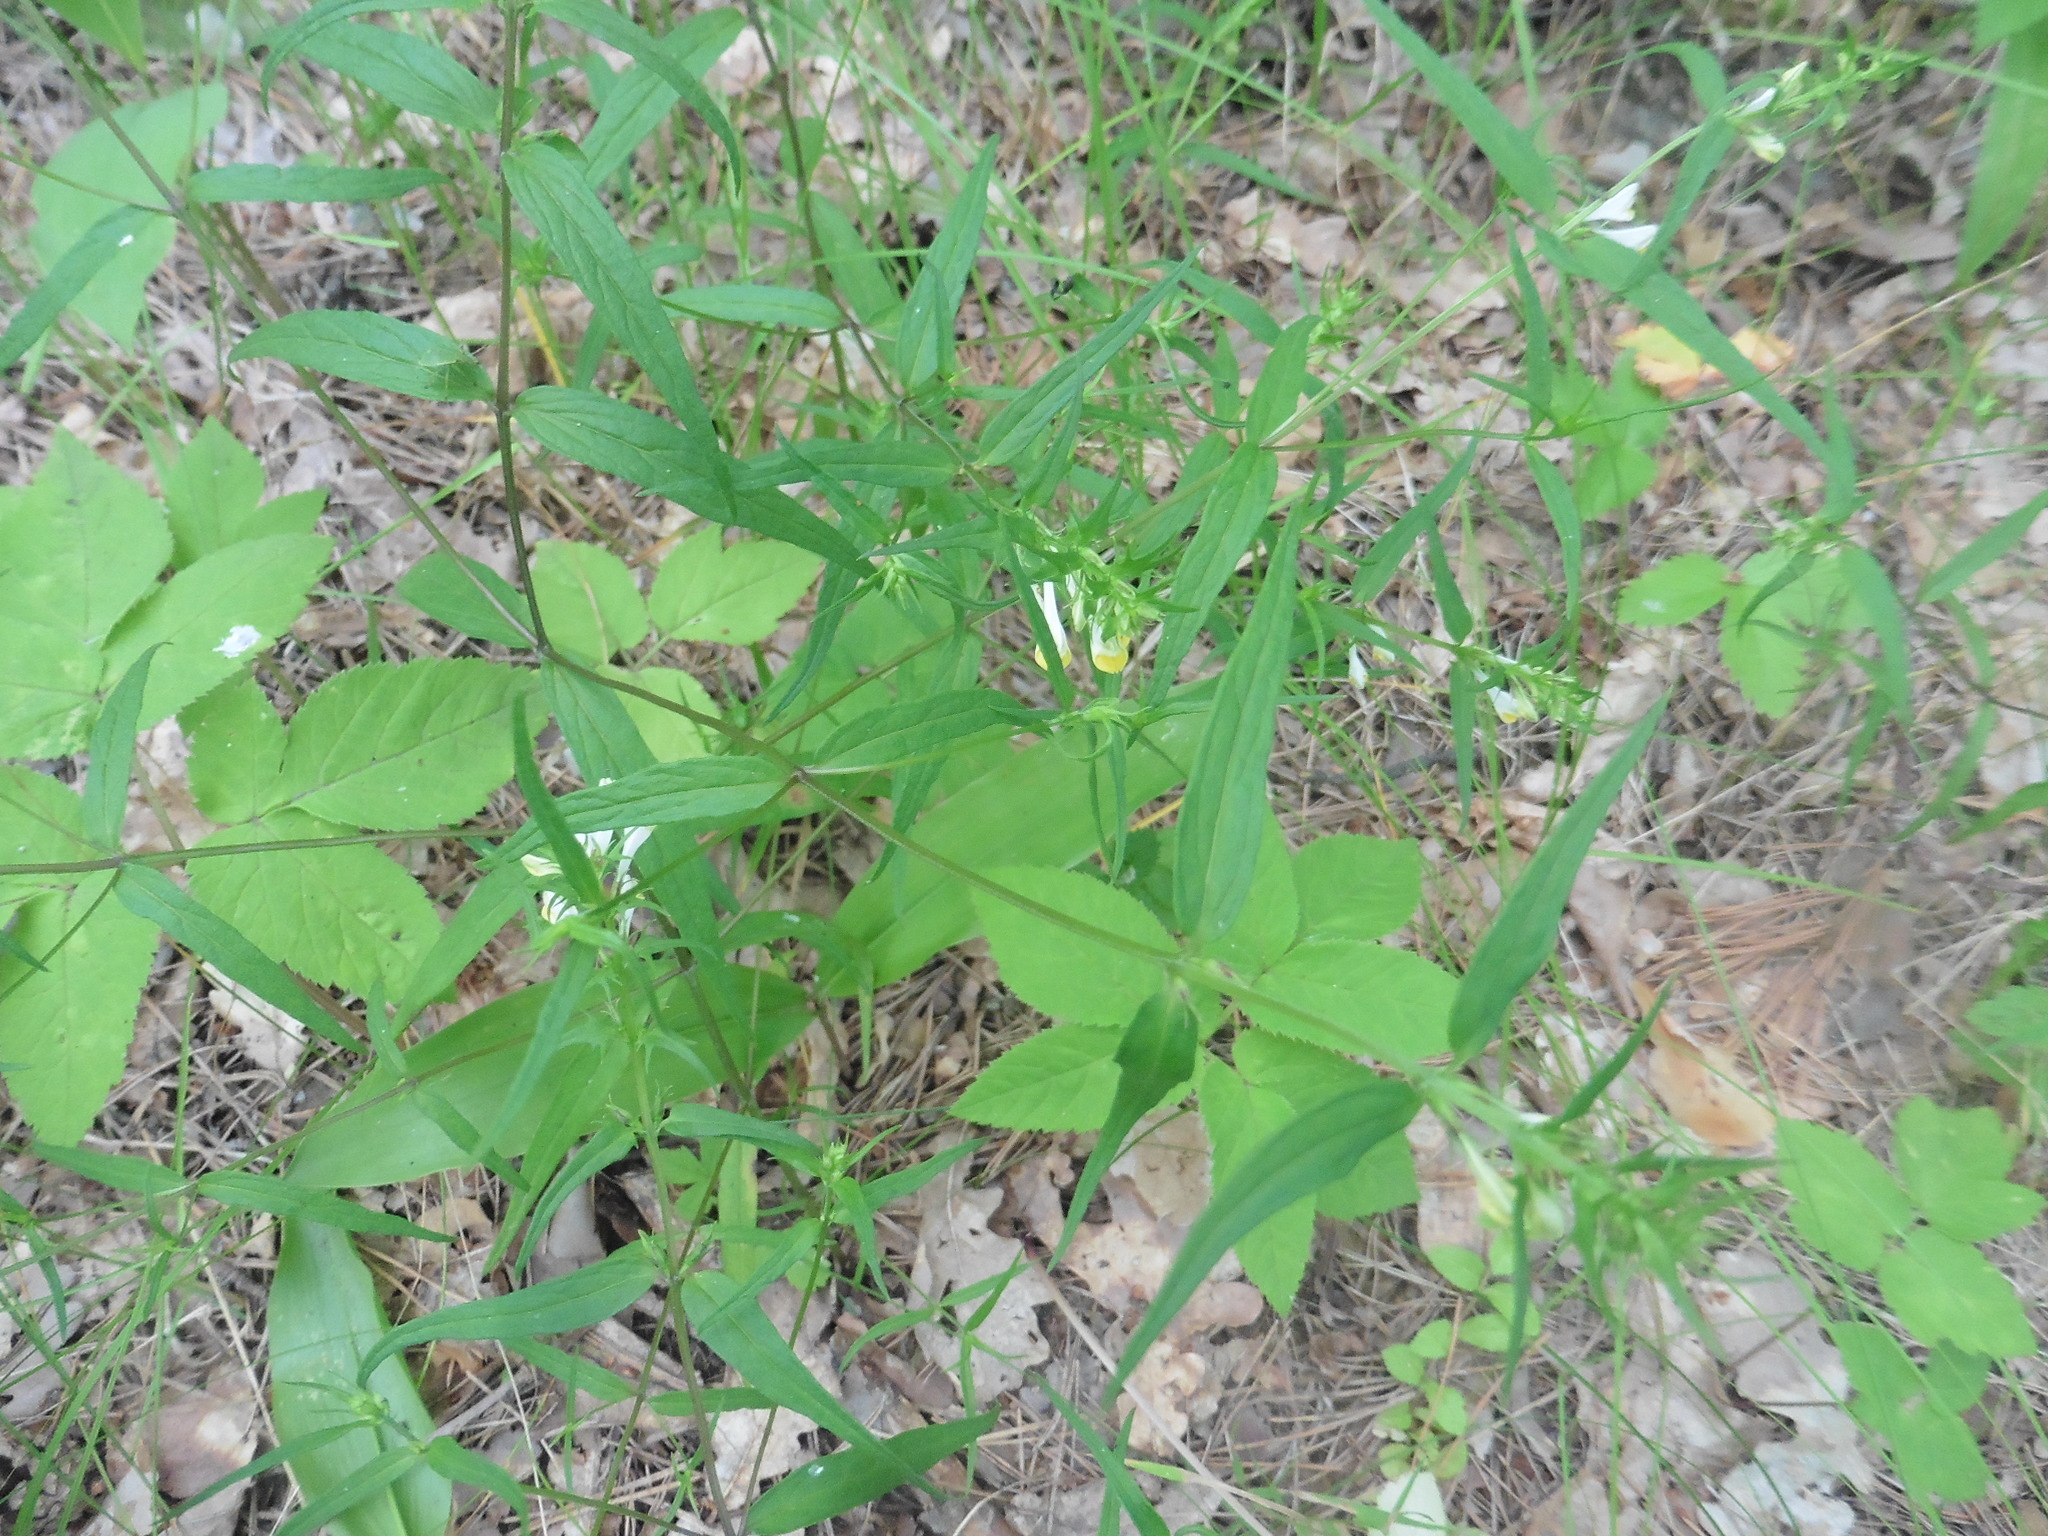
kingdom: Plantae
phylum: Tracheophyta
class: Magnoliopsida
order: Lamiales
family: Orobanchaceae
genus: Melampyrum
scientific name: Melampyrum pratense
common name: Common cow-wheat
